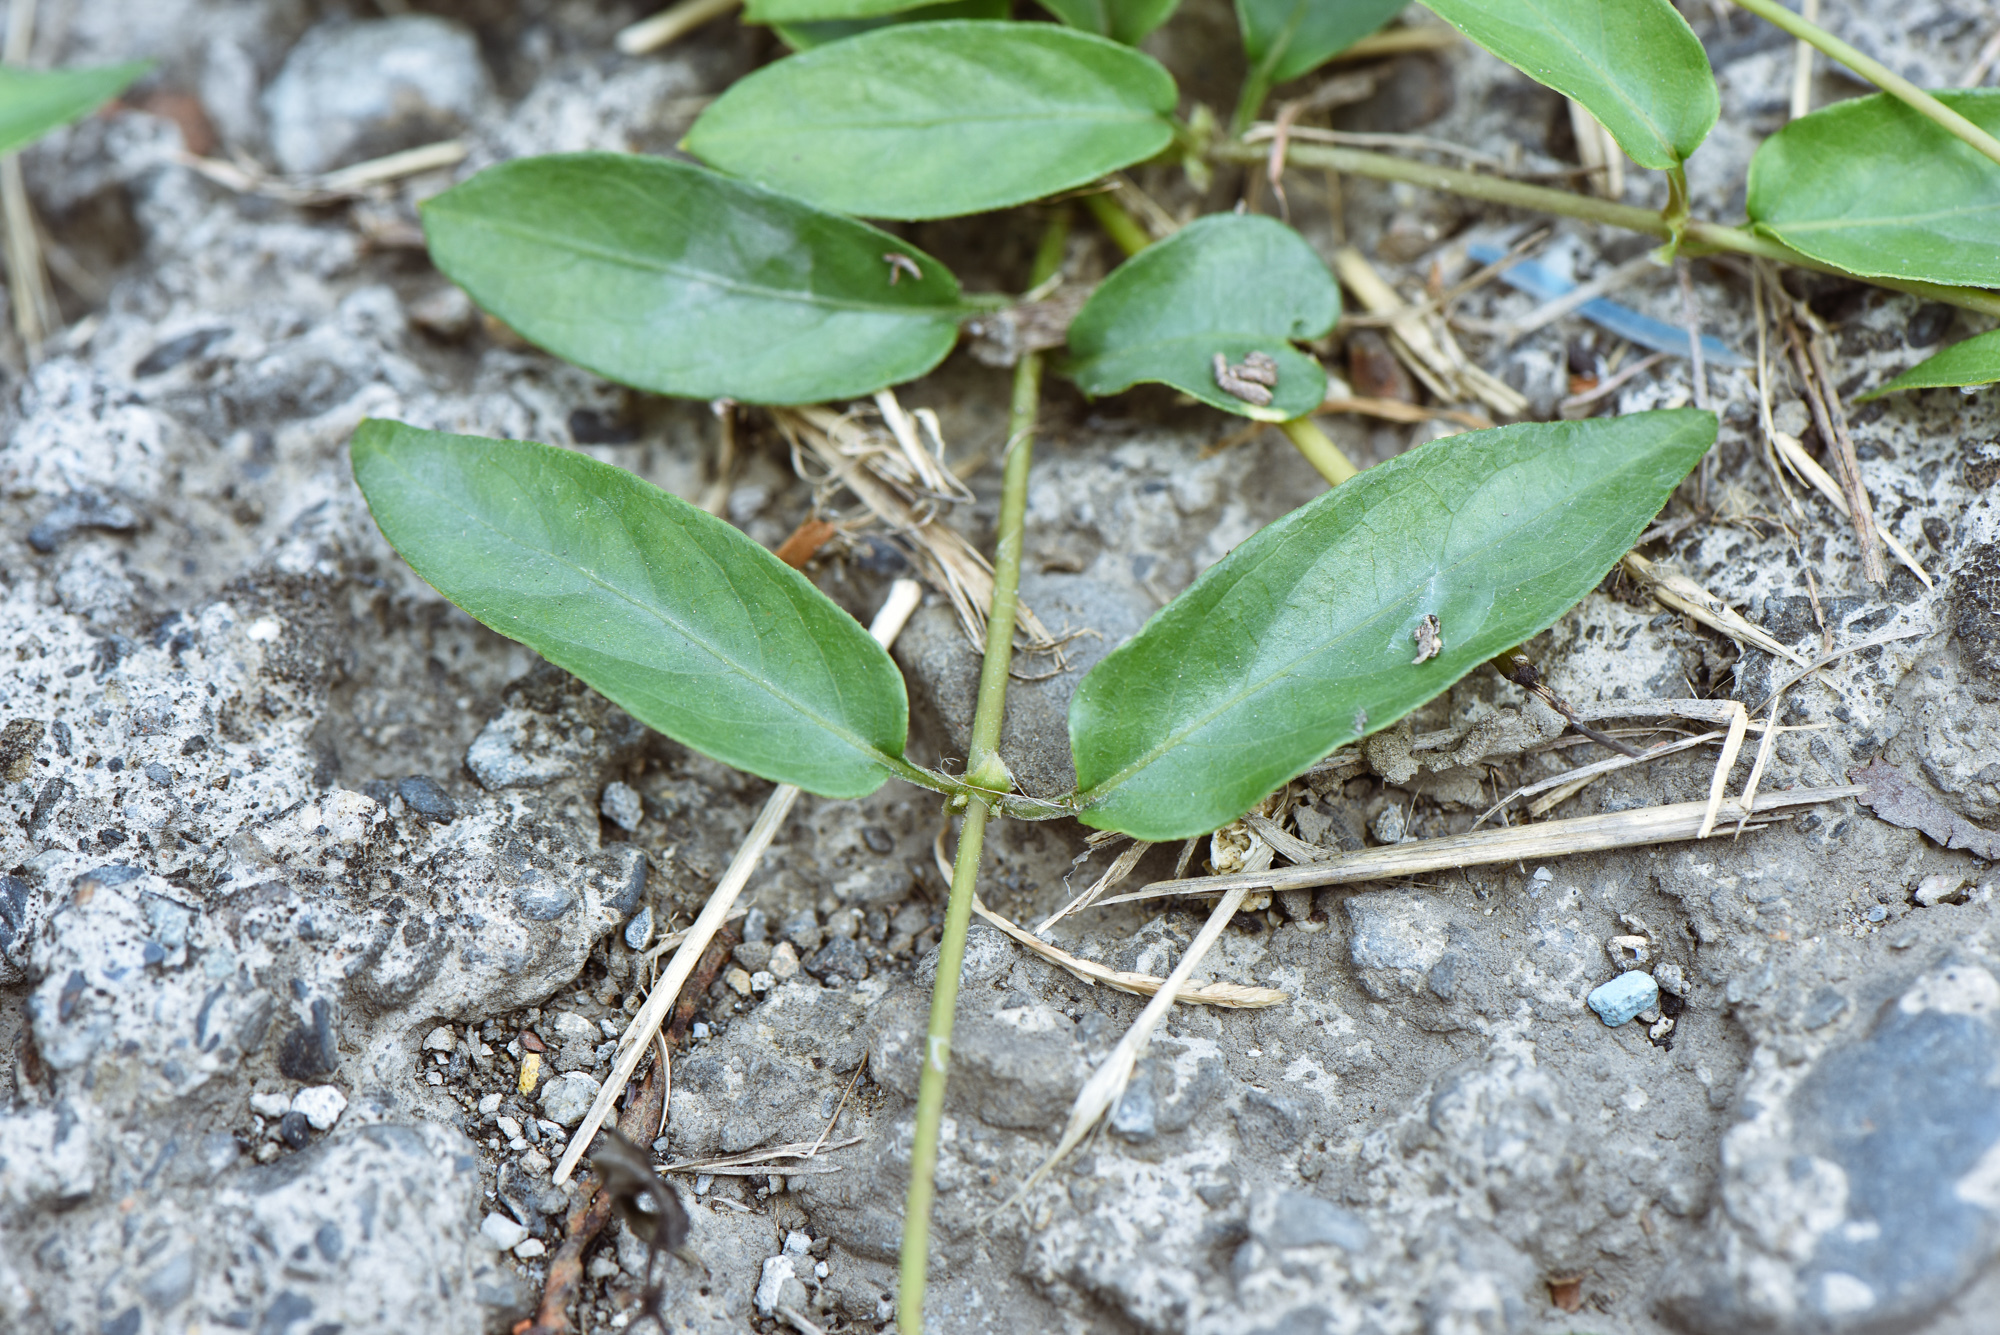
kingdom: Plantae
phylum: Tracheophyta
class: Magnoliopsida
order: Gentianales
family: Rubiaceae
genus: Paederia
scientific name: Paederia foetida
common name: Stinkvine
